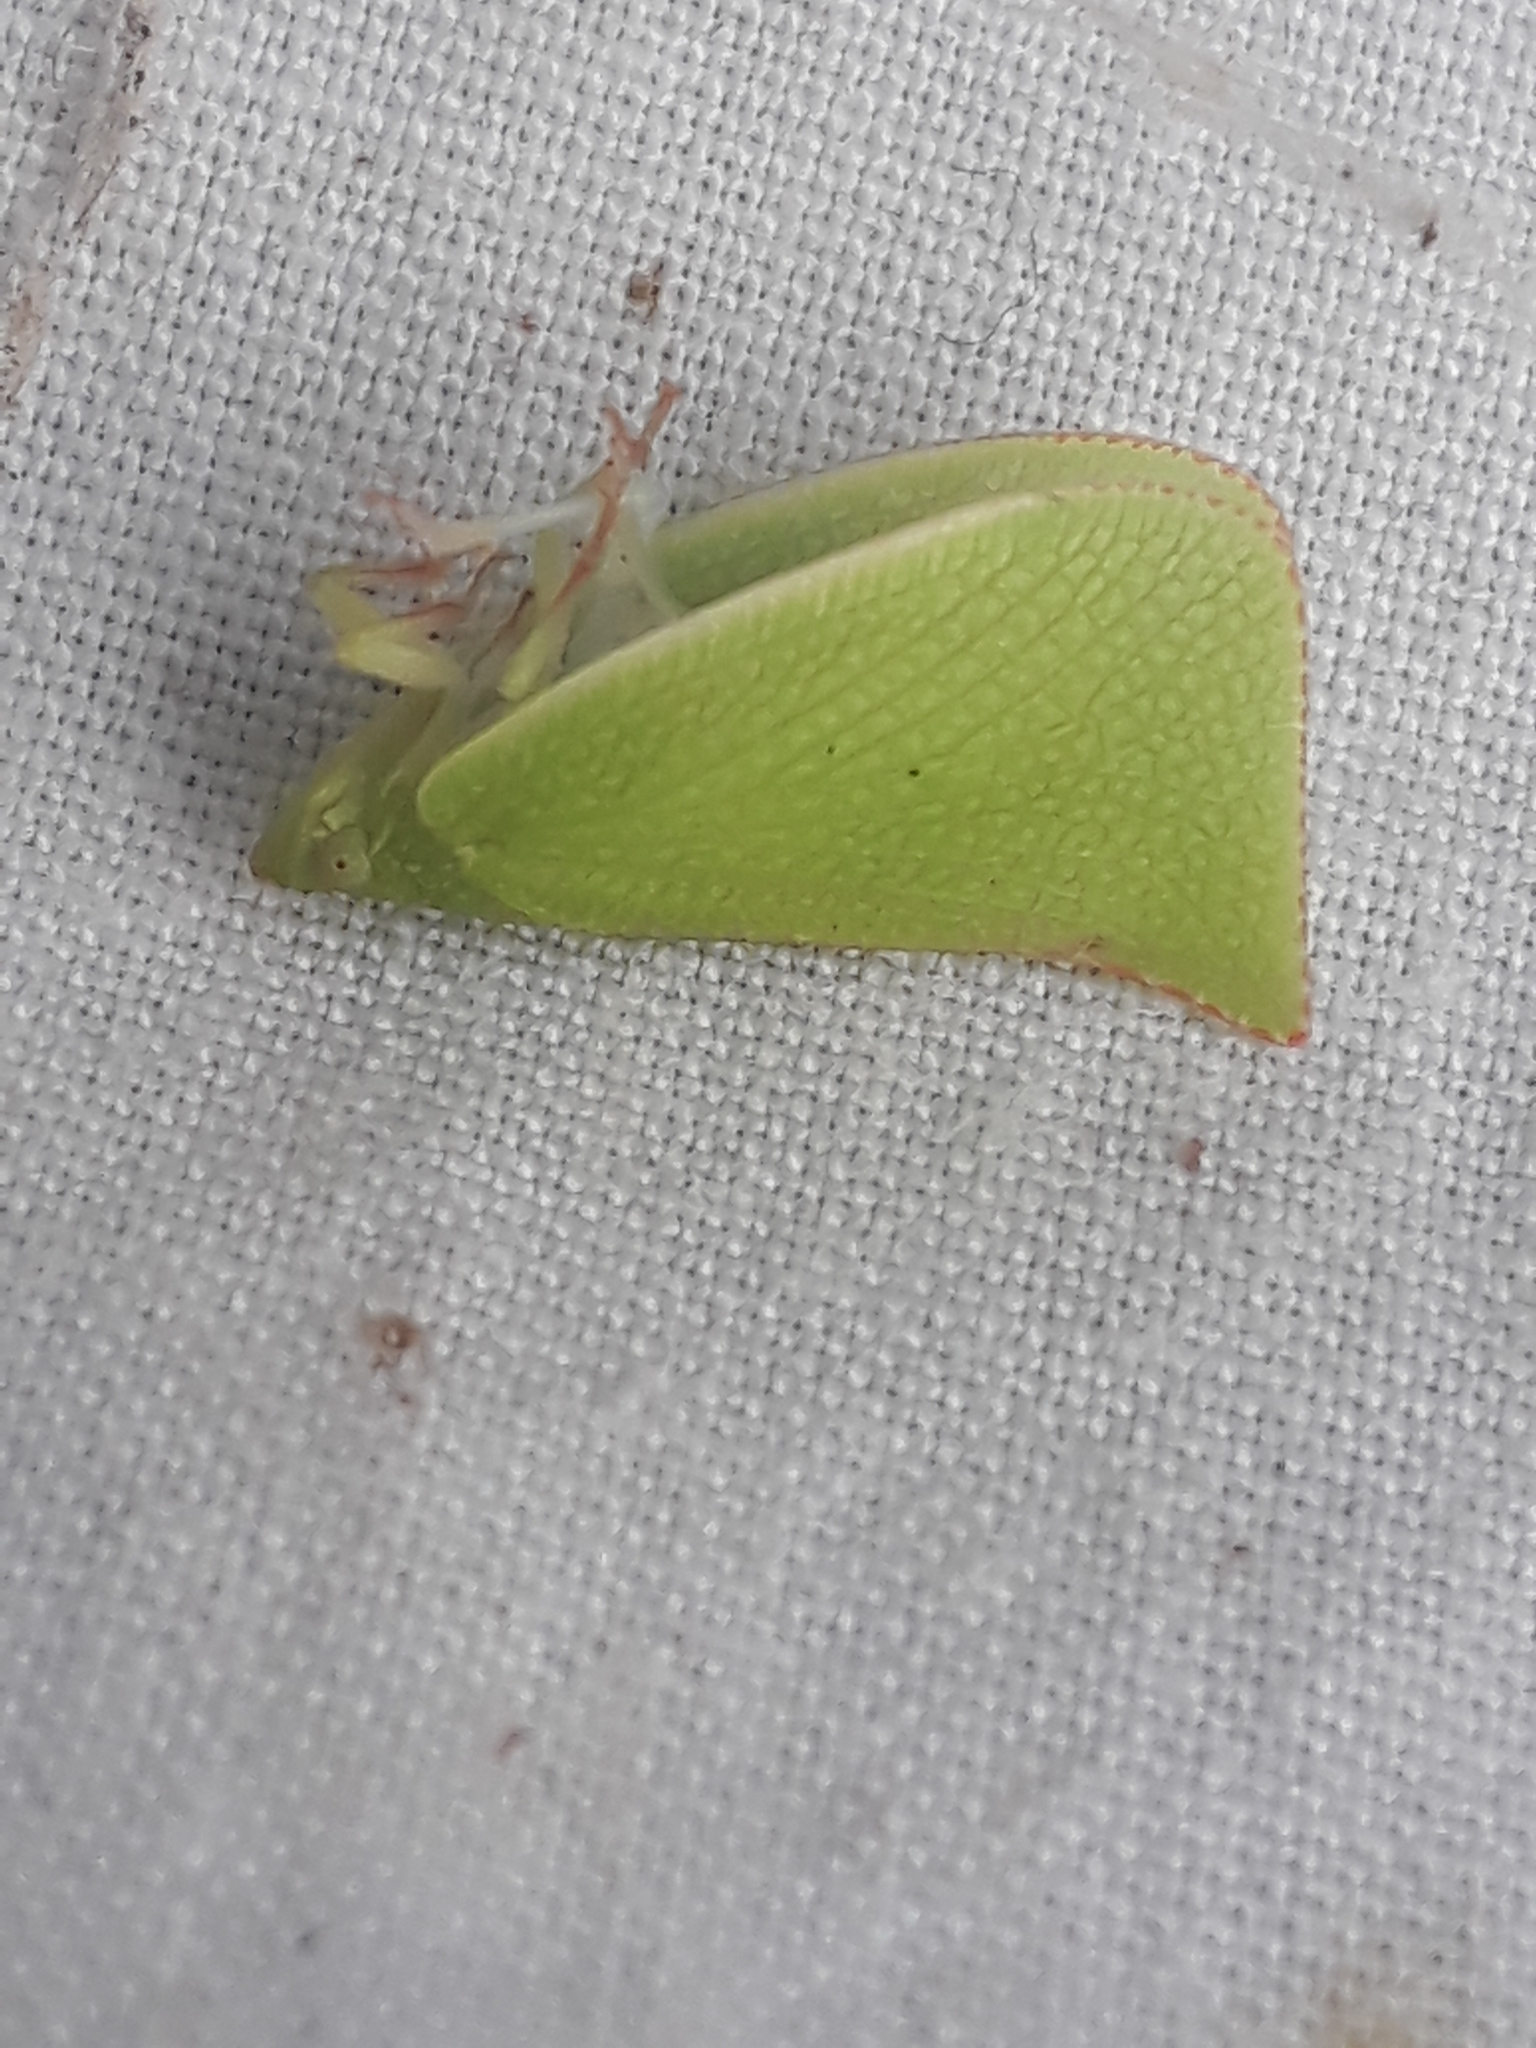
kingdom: Animalia
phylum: Arthropoda
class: Insecta
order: Hemiptera
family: Flatidae
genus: Siphanta
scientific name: Siphanta acuta
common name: Torpedo bug
